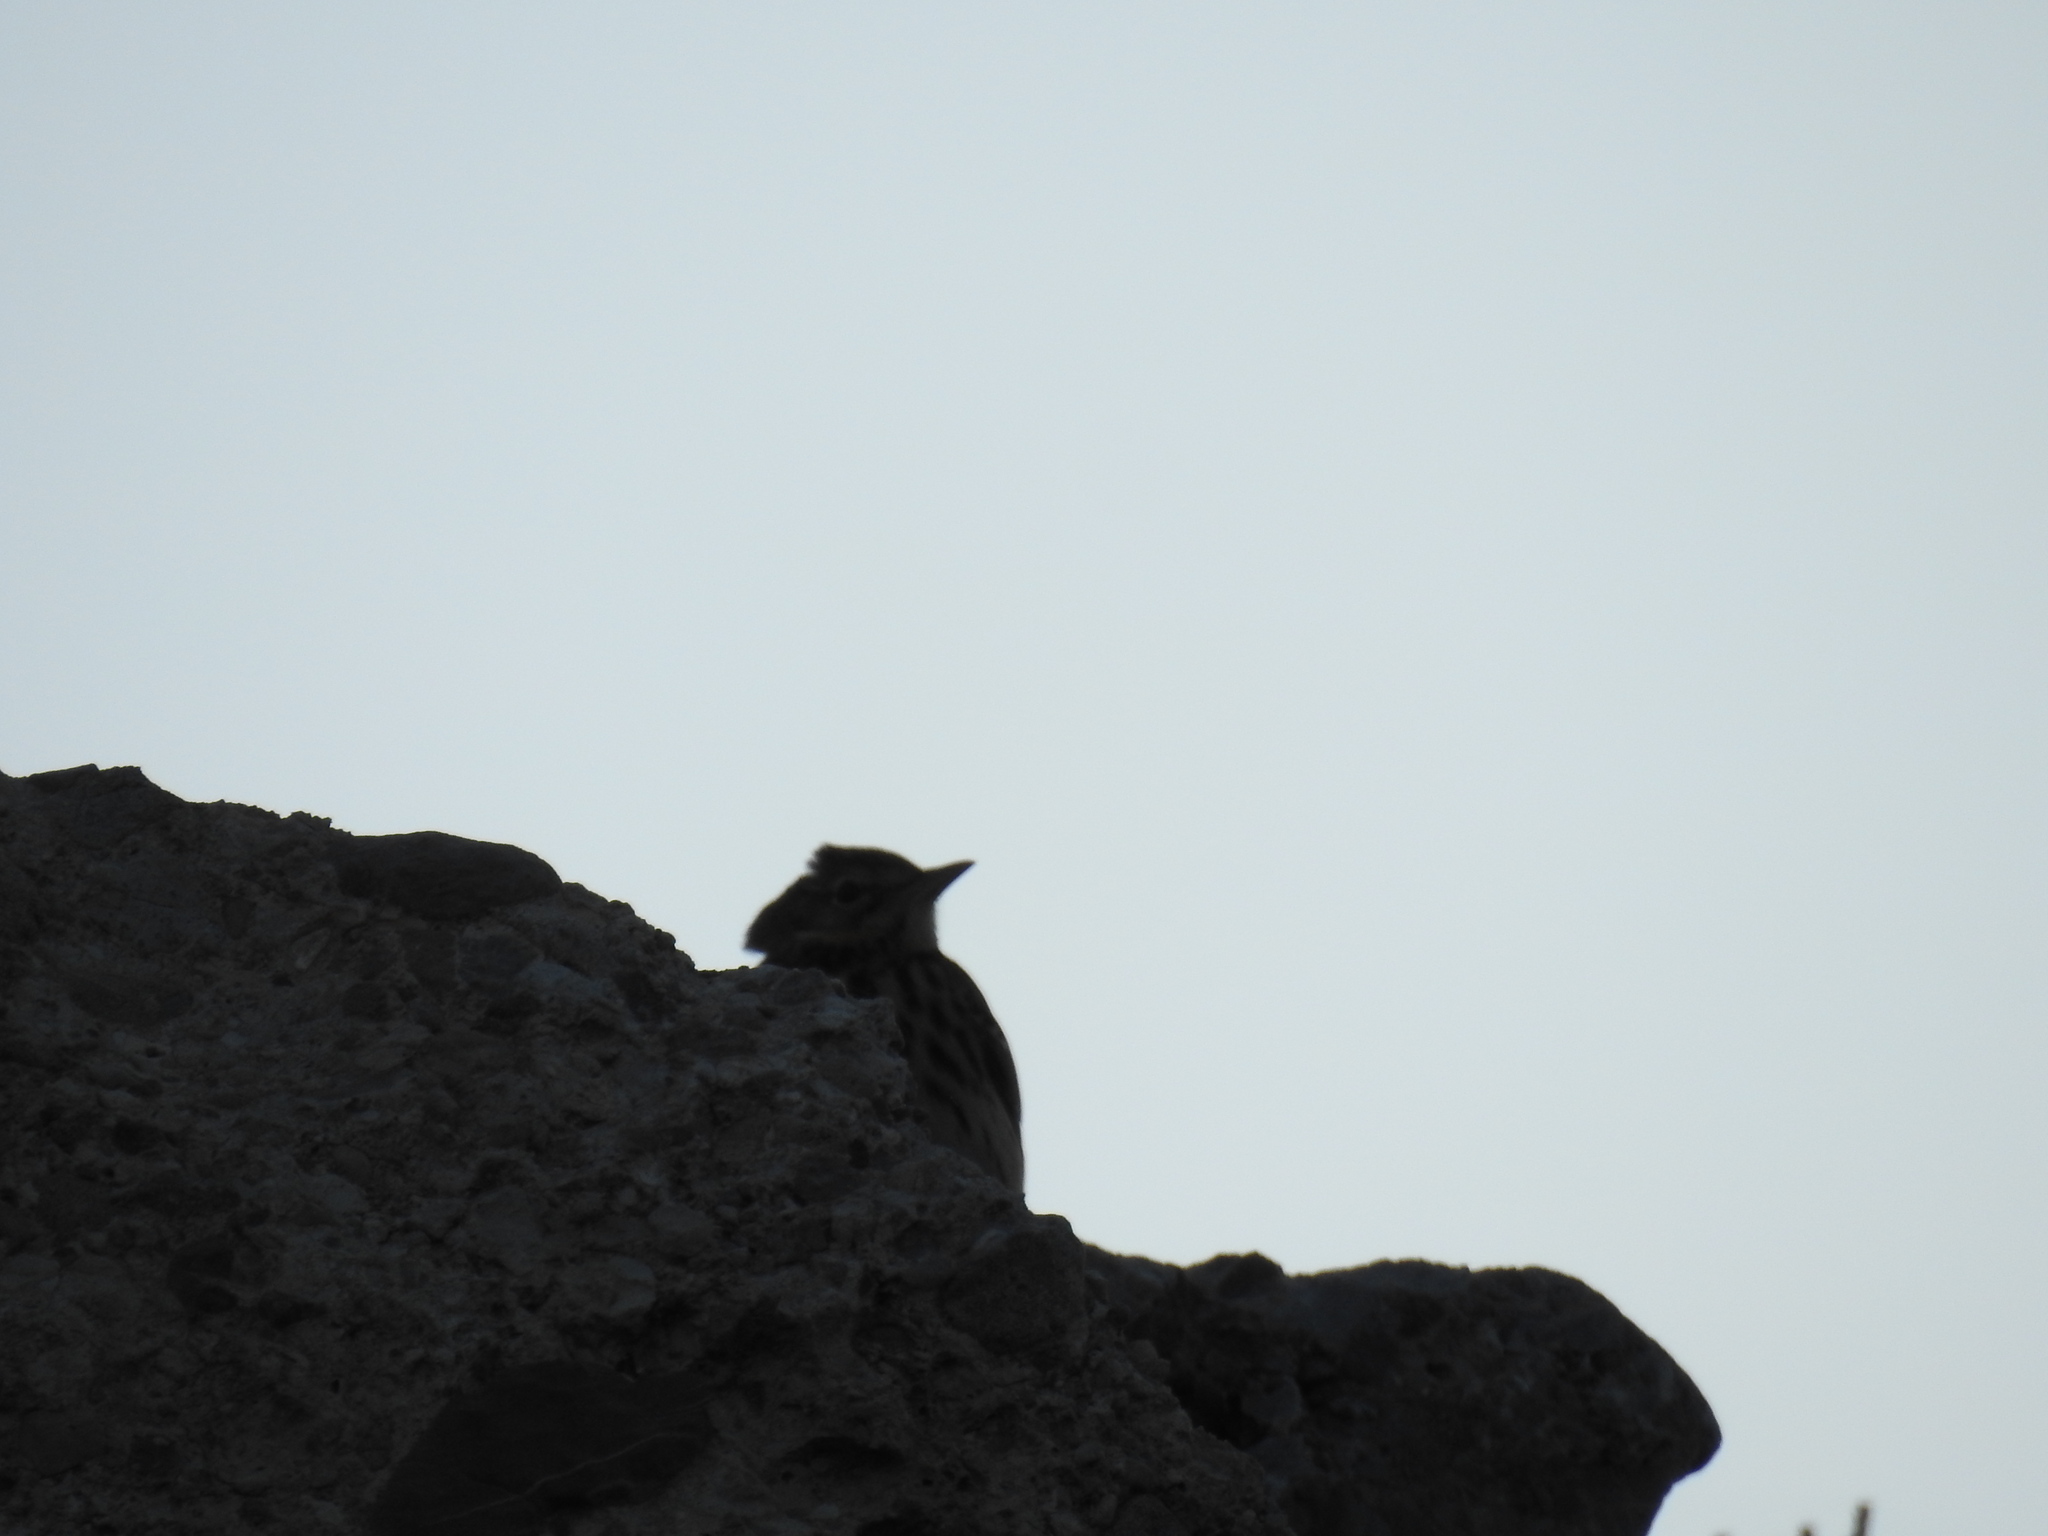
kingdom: Animalia
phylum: Chordata
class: Aves
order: Passeriformes
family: Motacillidae
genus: Anthus
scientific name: Anthus trivialis
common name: Tree pipit
